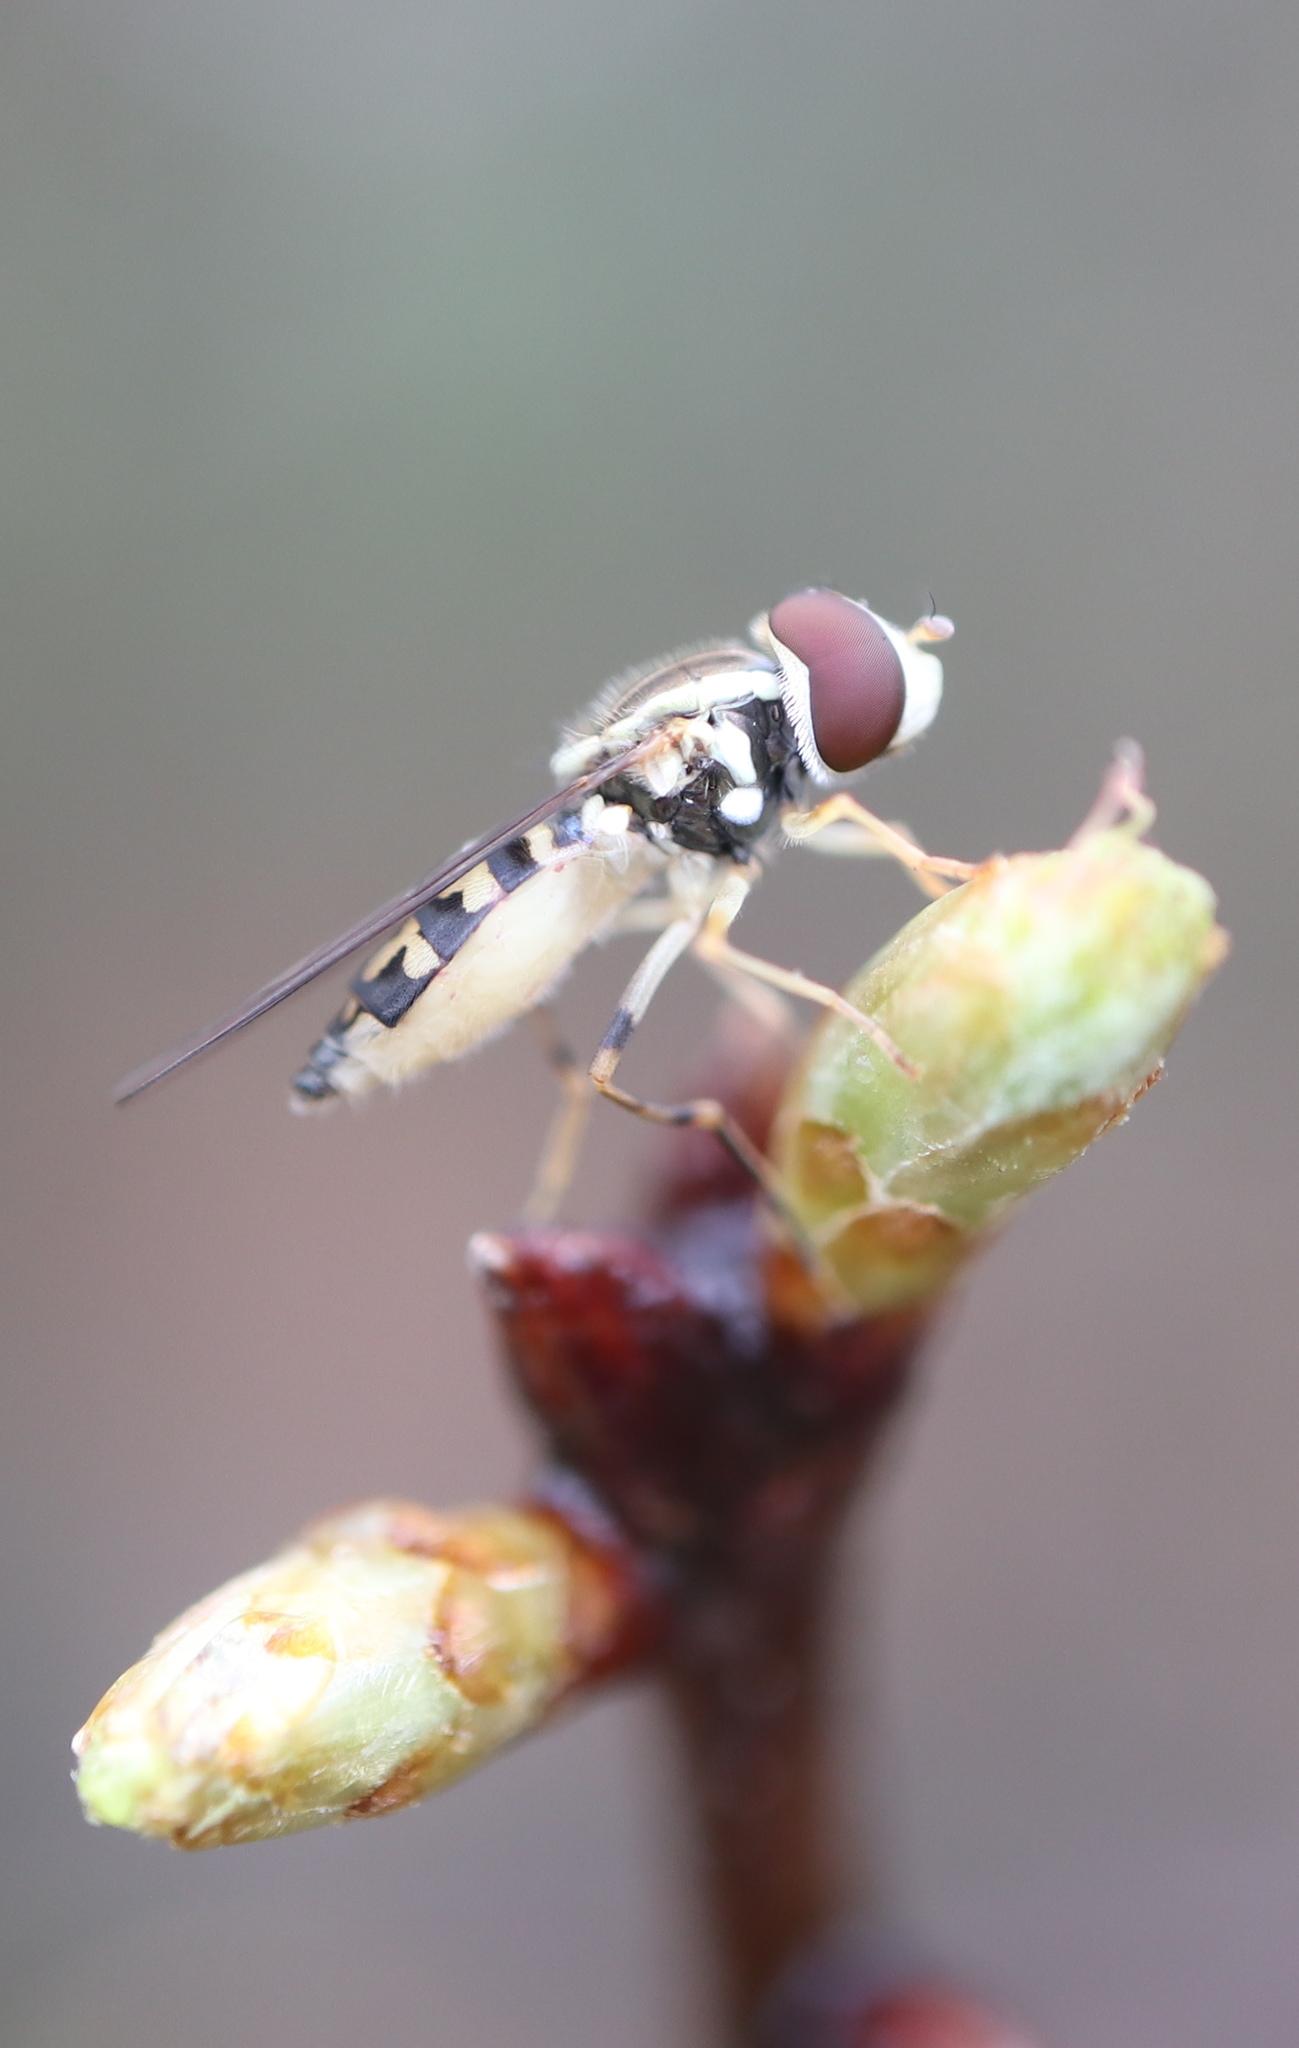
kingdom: Animalia
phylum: Arthropoda
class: Insecta
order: Diptera
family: Syrphidae
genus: Toxomerus
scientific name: Toxomerus geminatus
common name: Eastern calligrapher
